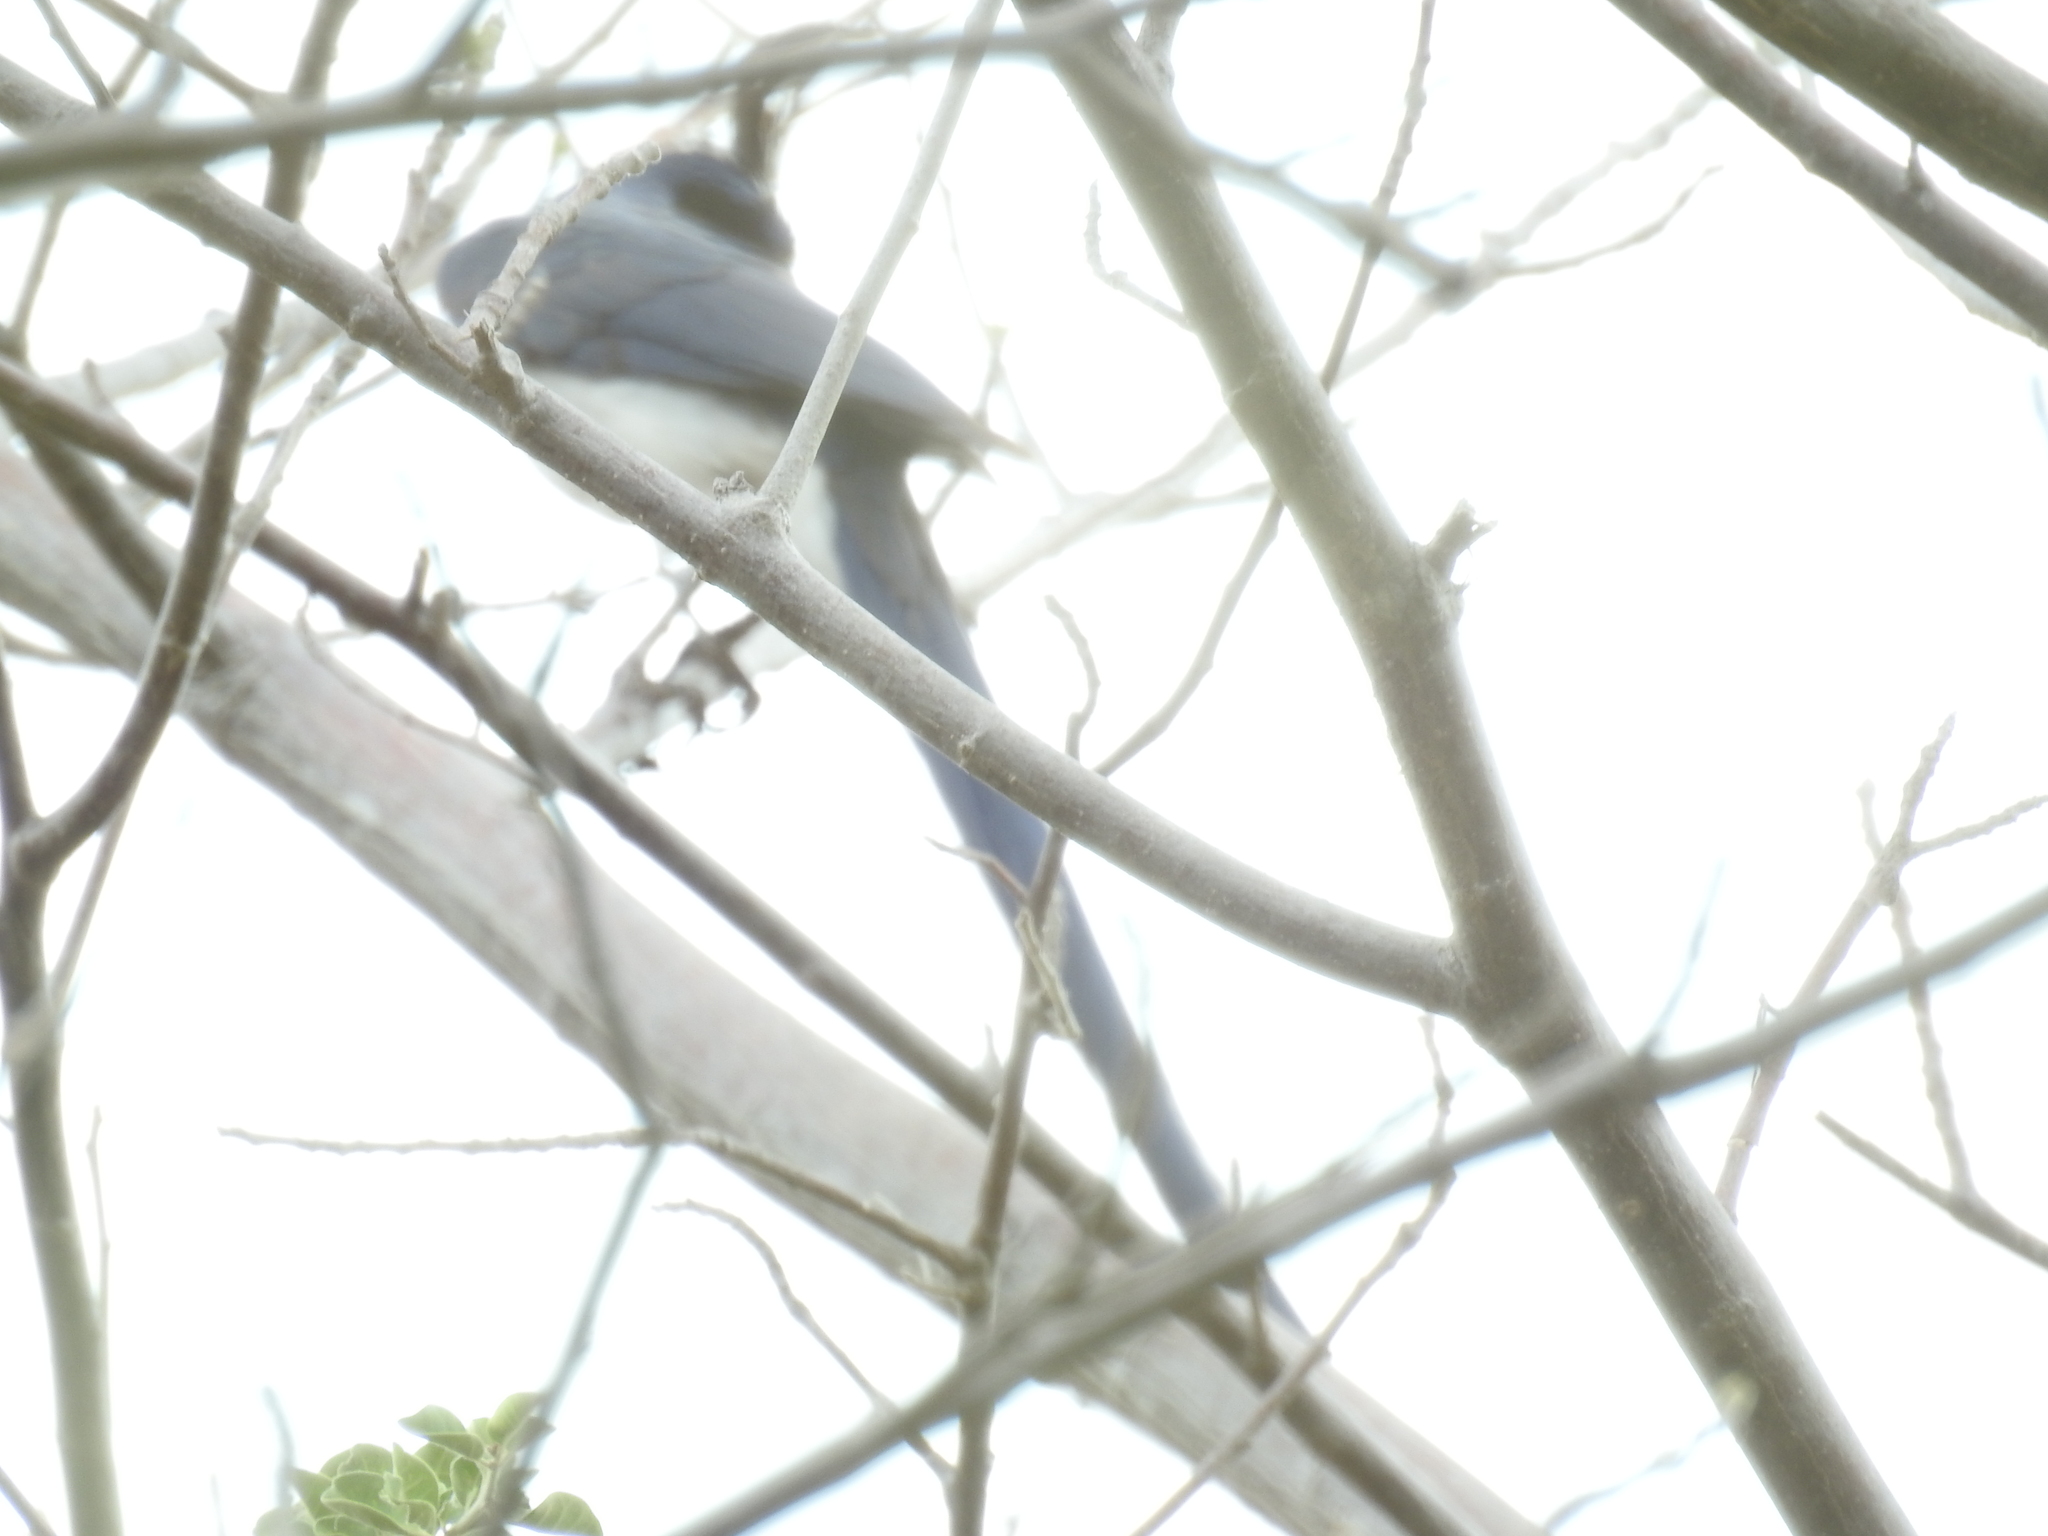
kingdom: Animalia
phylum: Chordata
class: Aves
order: Passeriformes
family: Corvidae
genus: Calocitta
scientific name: Calocitta colliei
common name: Black-throated magpie-jay
